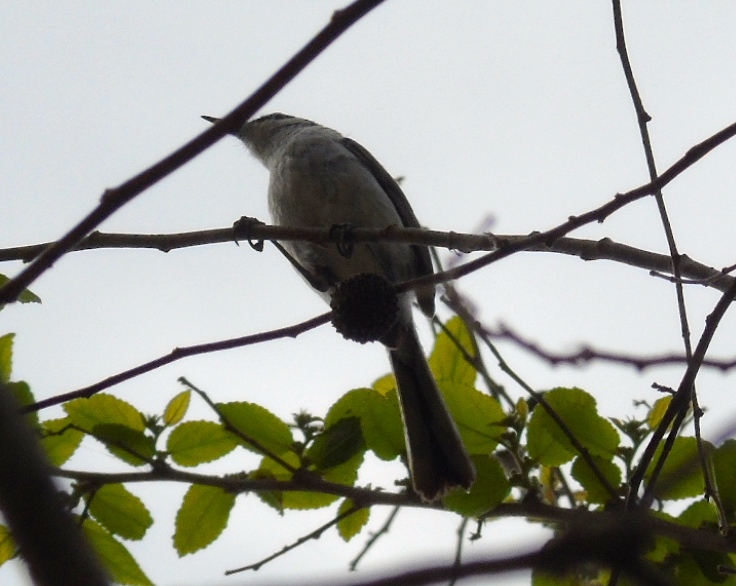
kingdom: Animalia
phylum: Chordata
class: Aves
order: Passeriformes
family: Polioptilidae
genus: Polioptila
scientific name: Polioptila nigriceps
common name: Black-capped gnatcatcher
